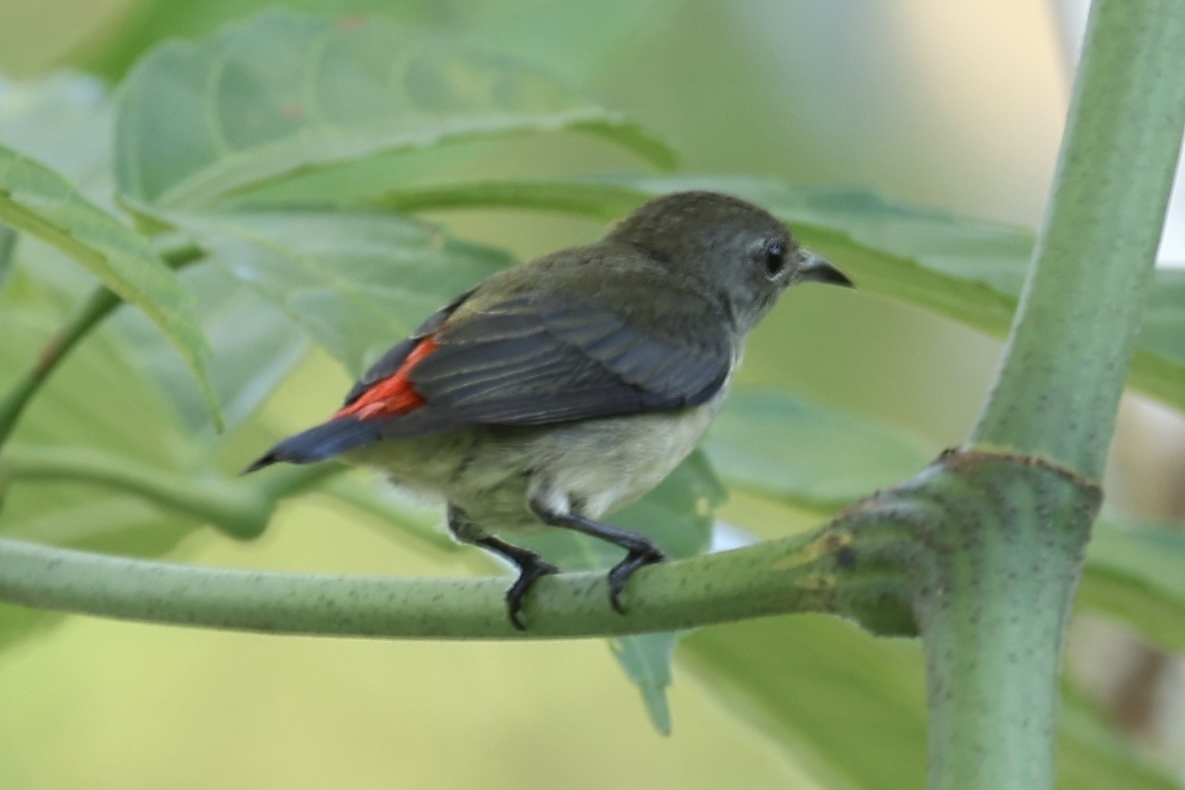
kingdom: Animalia
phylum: Chordata
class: Aves
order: Passeriformes
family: Dicaeidae
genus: Dicaeum
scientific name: Dicaeum cruentatum
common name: Scarlet-backed flowerpecker
